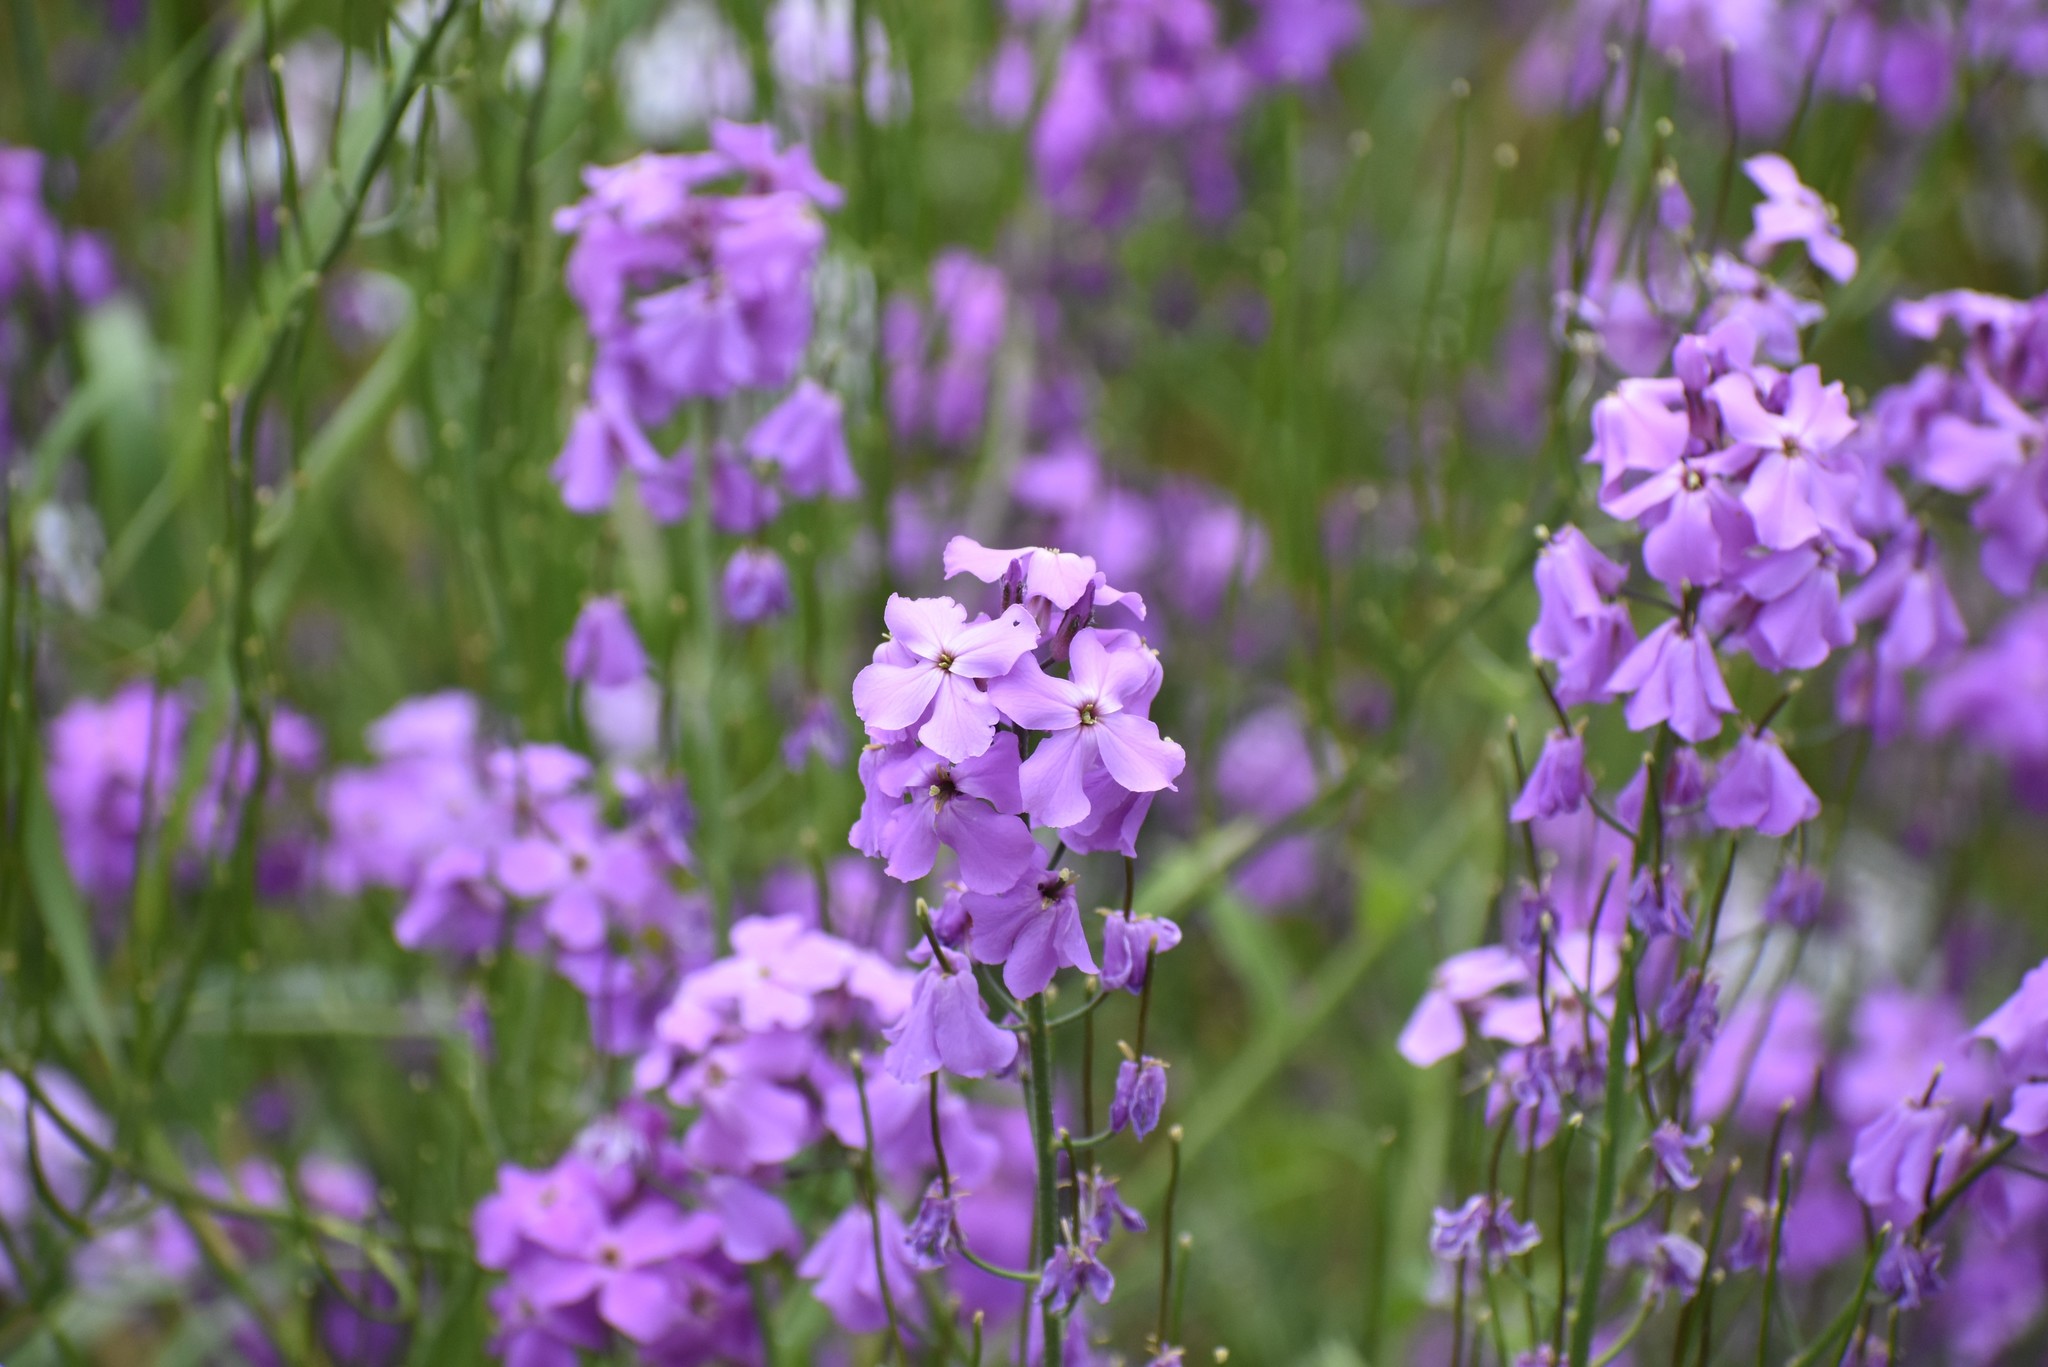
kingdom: Plantae
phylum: Tracheophyta
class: Magnoliopsida
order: Brassicales
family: Brassicaceae
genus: Hesperis
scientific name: Hesperis matronalis
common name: Dame's-violet
